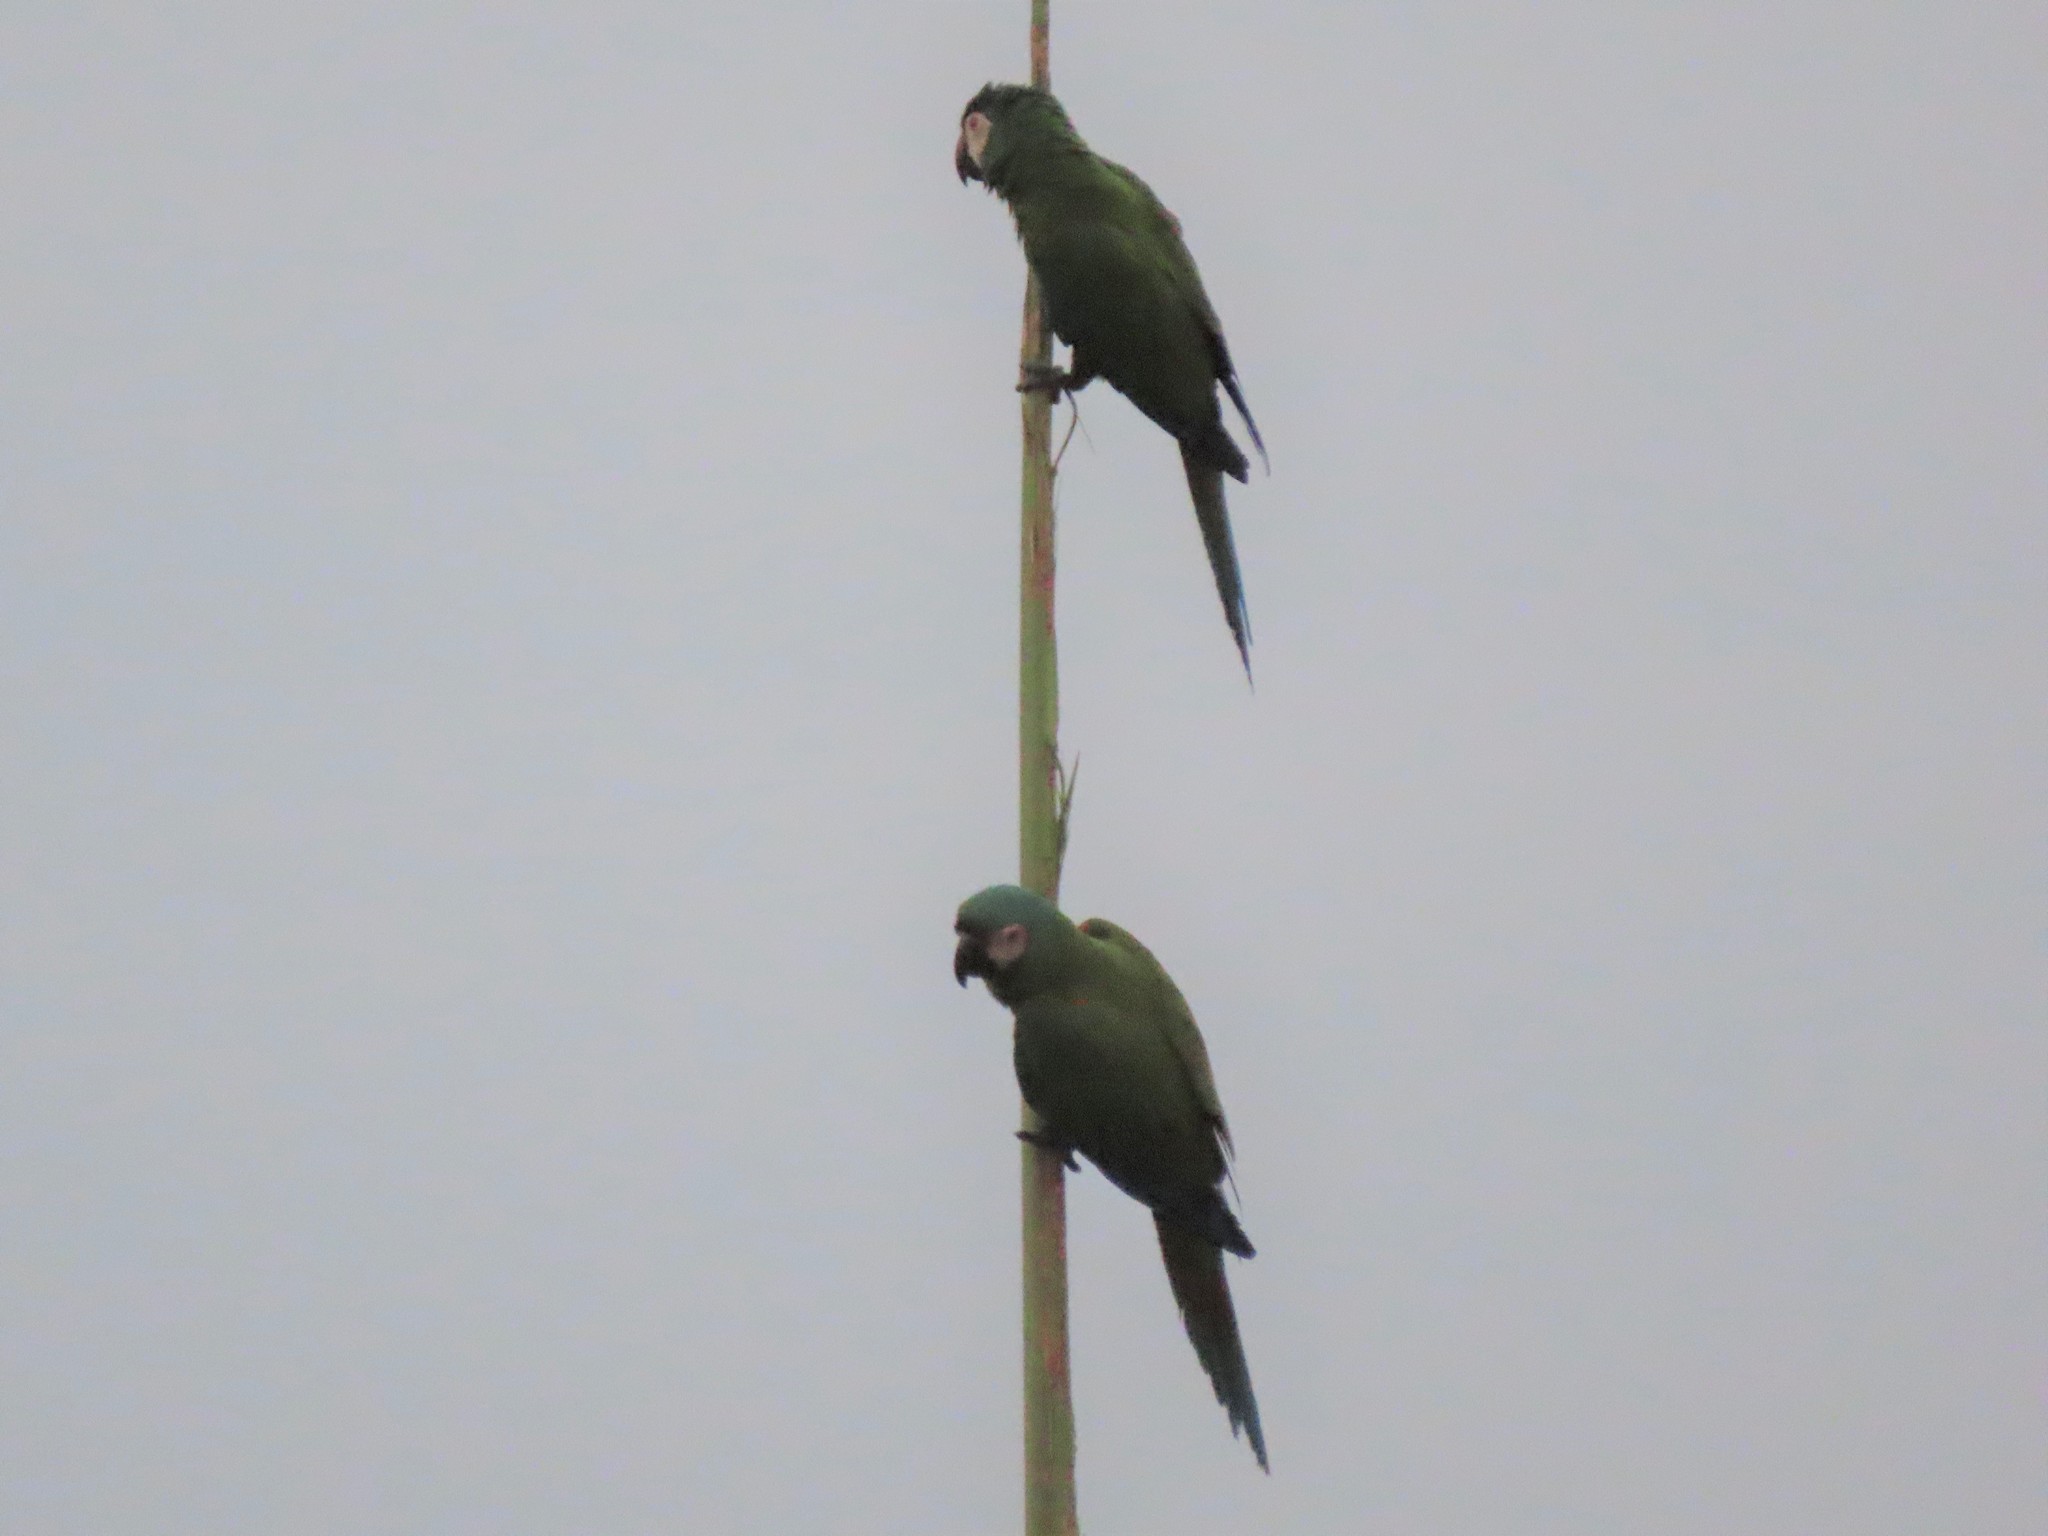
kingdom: Animalia
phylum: Chordata
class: Aves
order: Psittaciformes
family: Psittacidae
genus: Ara
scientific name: Ara severus
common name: Chestnut-fronted macaw
